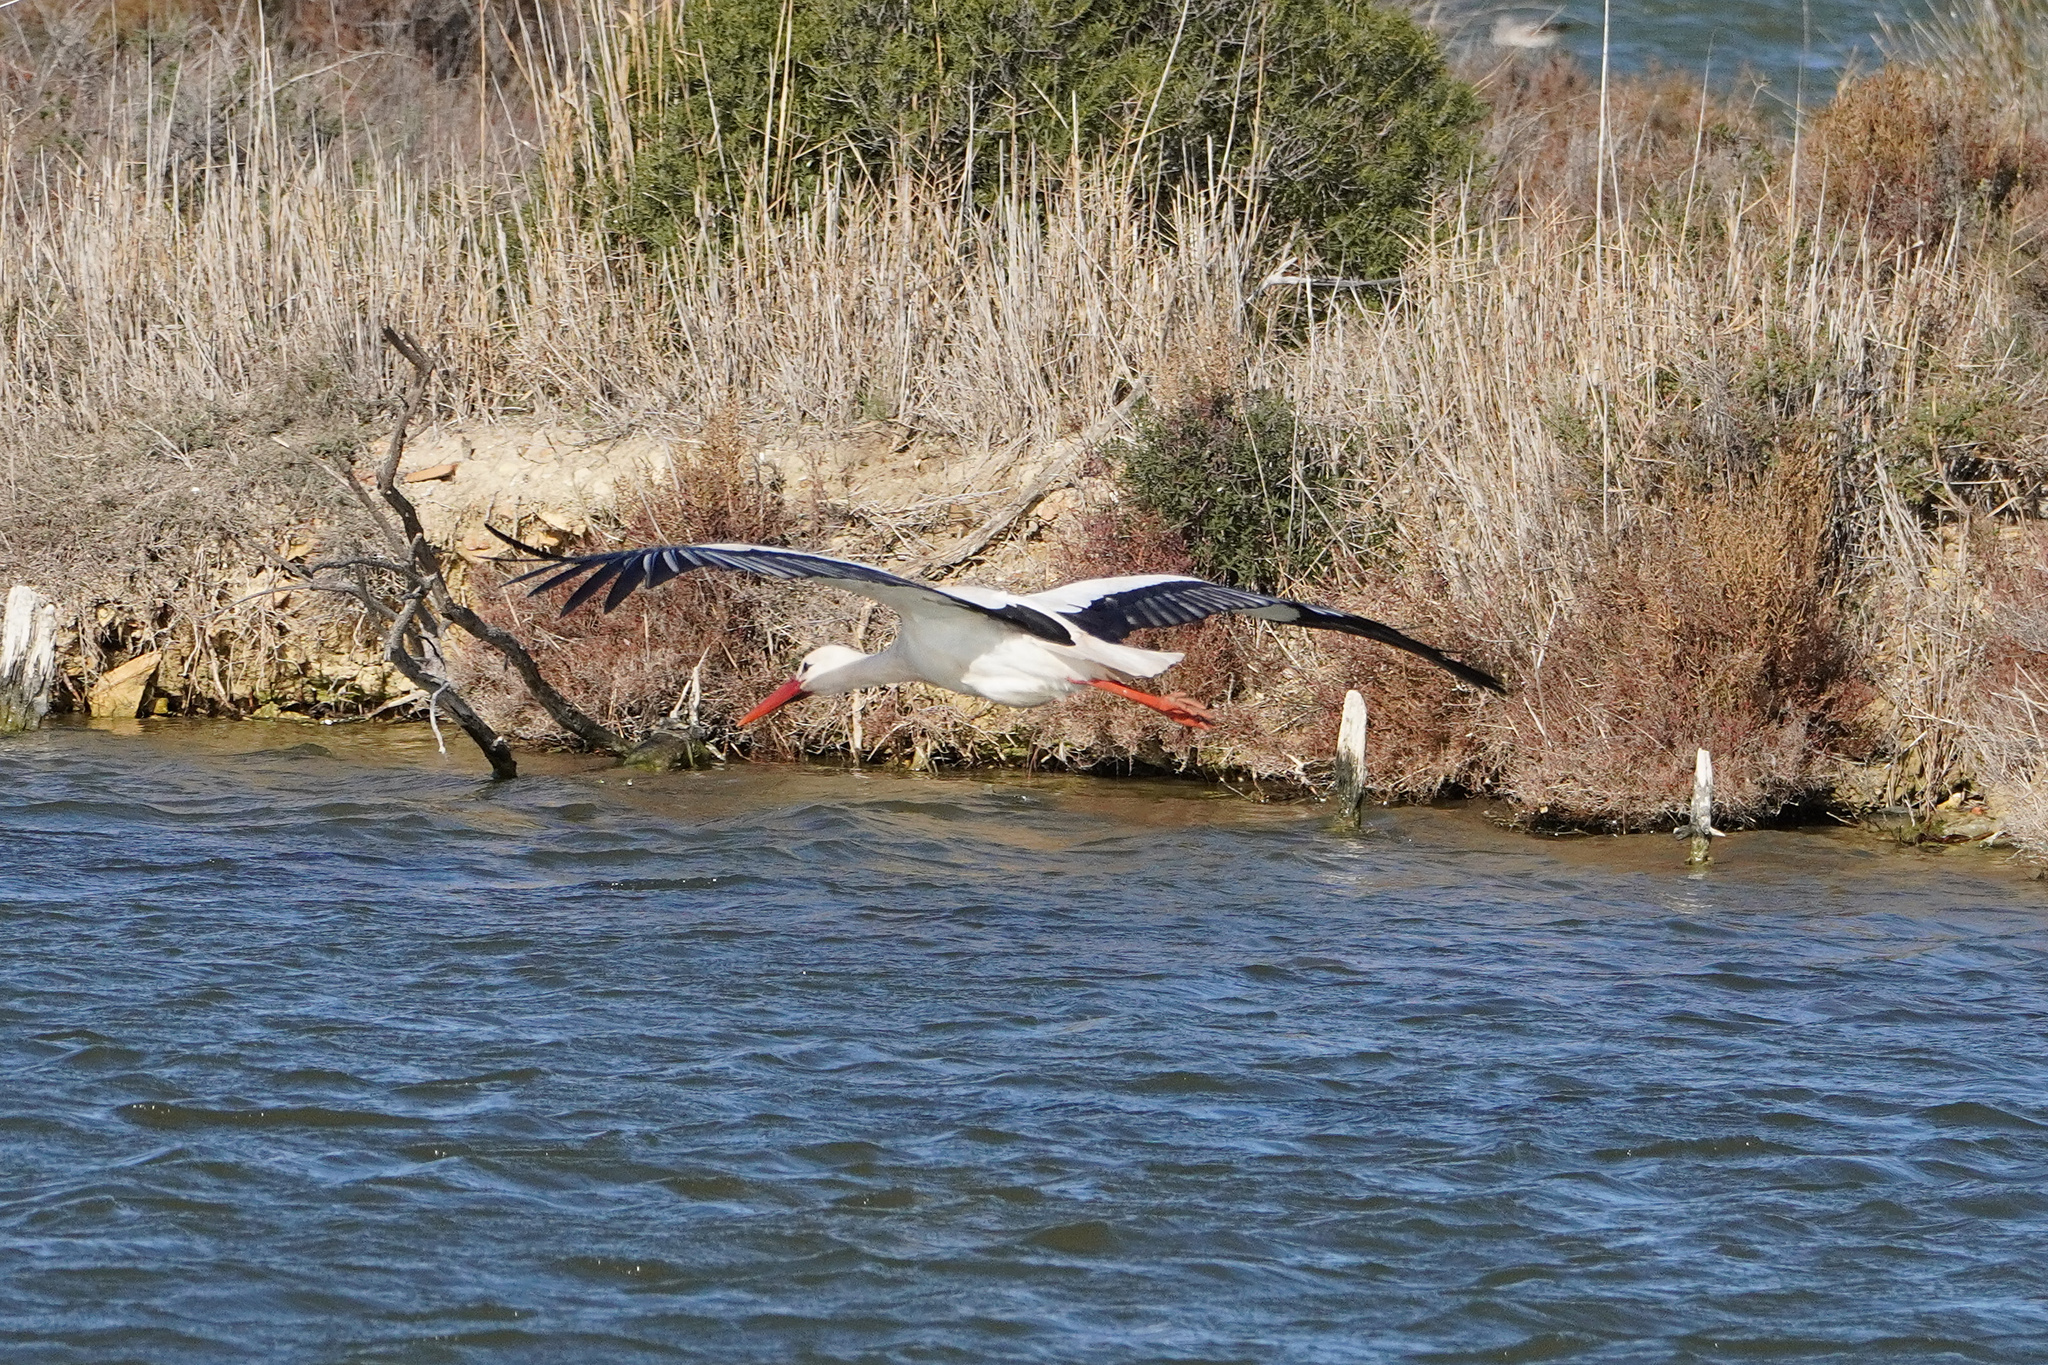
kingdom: Animalia
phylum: Chordata
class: Aves
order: Ciconiiformes
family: Ciconiidae
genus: Ciconia
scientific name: Ciconia ciconia
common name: White stork
